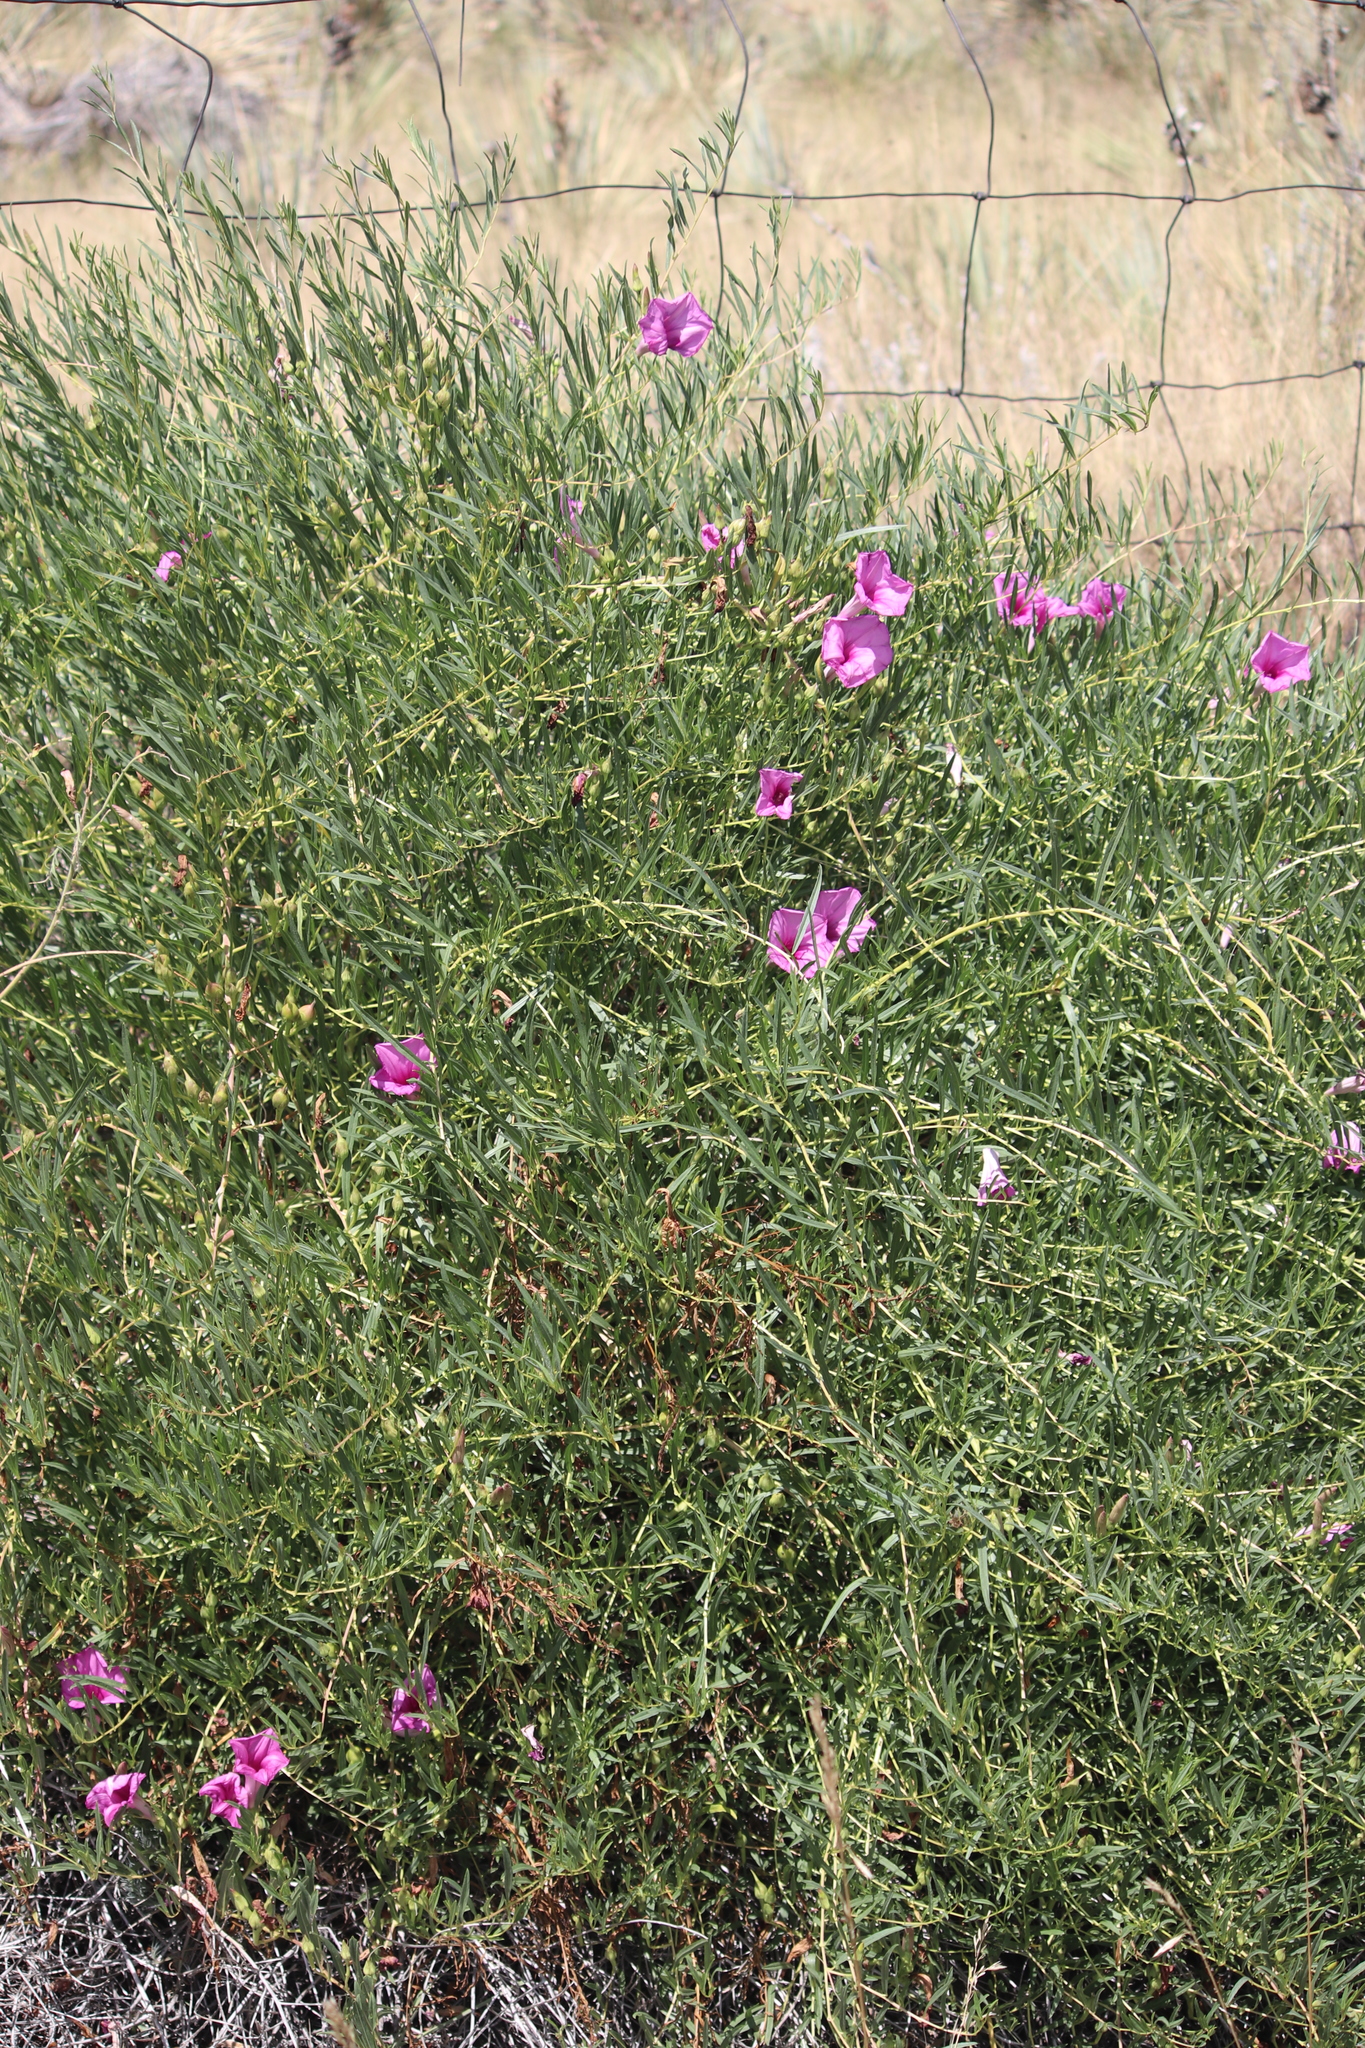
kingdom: Plantae
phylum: Tracheophyta
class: Magnoliopsida
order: Solanales
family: Convolvulaceae
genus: Ipomoea
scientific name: Ipomoea leptophylla
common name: Bush moonflower
